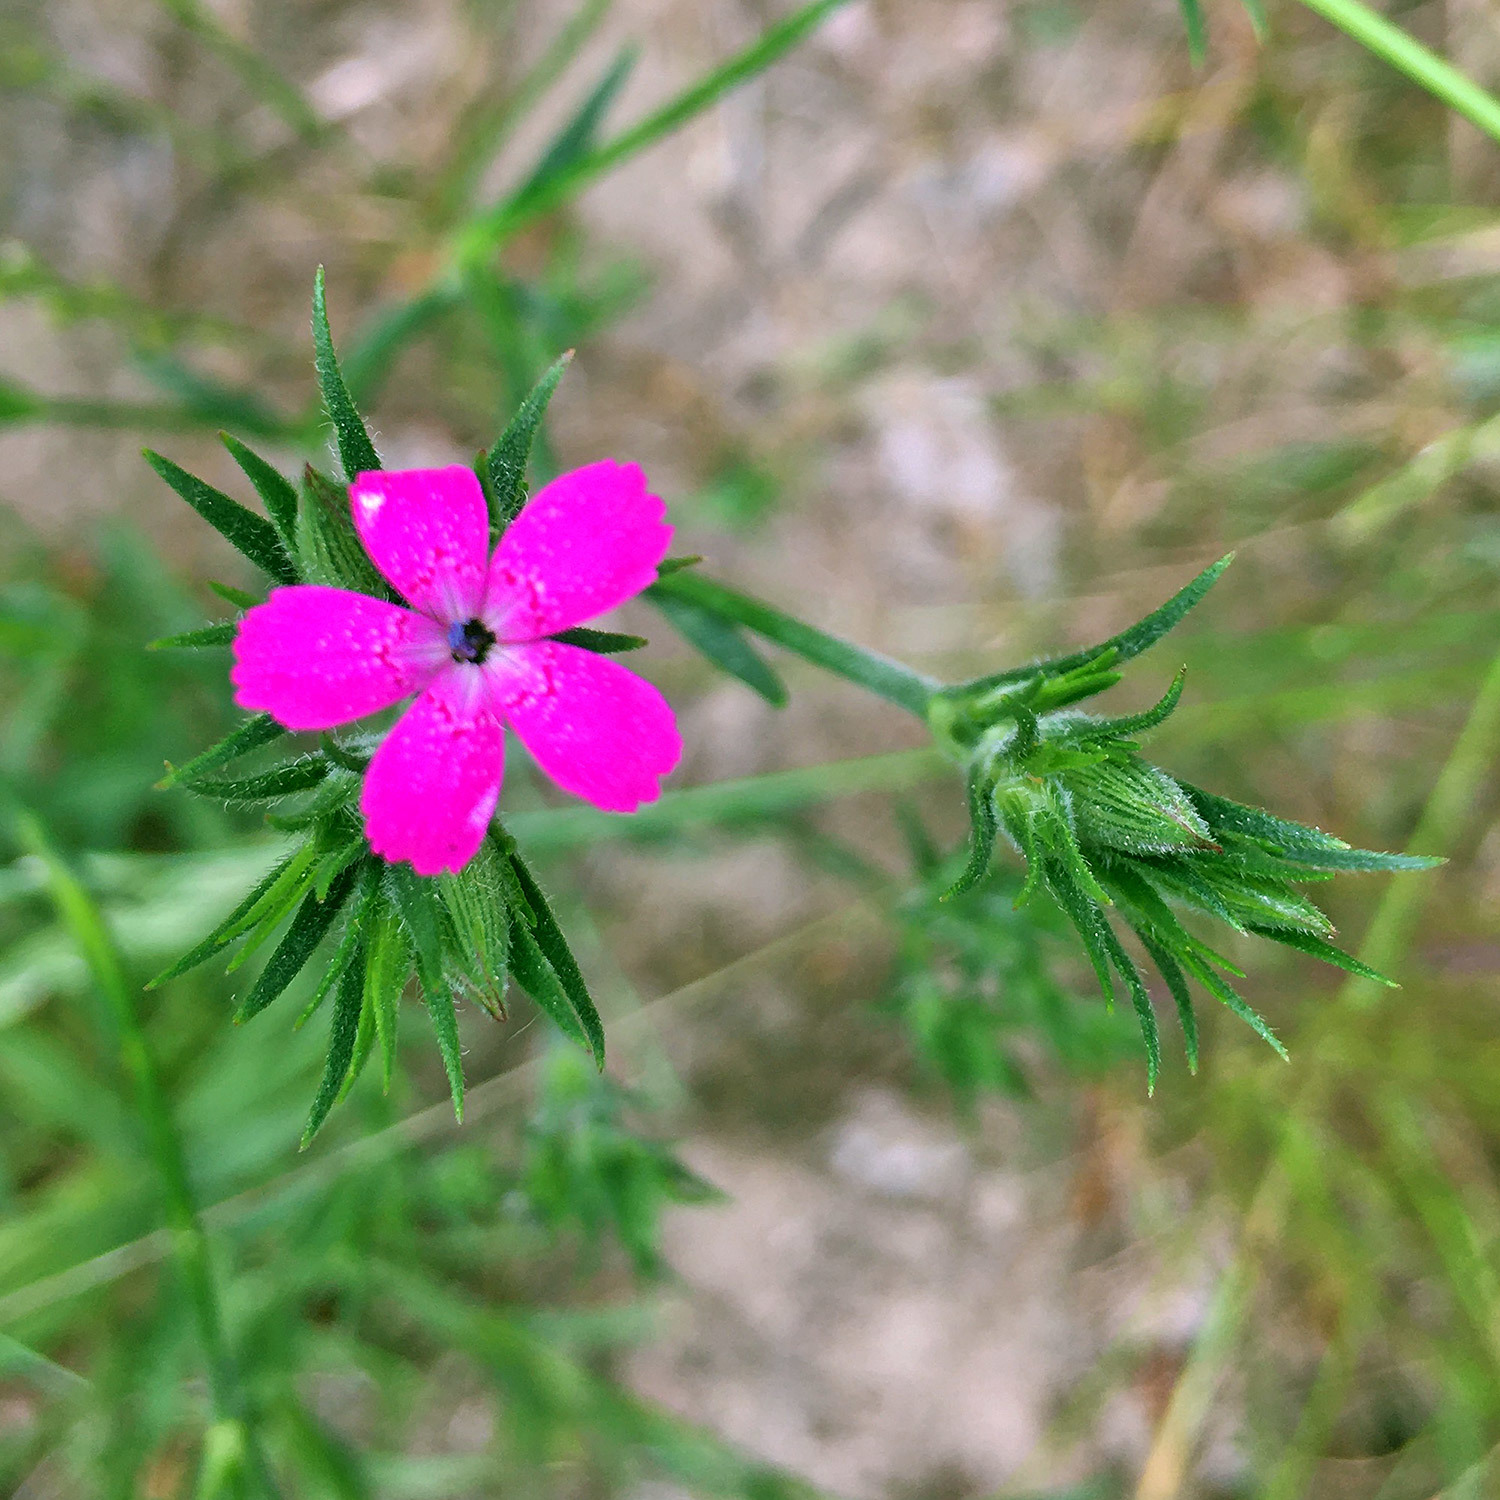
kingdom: Plantae
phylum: Tracheophyta
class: Magnoliopsida
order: Caryophyllales
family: Caryophyllaceae
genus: Dianthus
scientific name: Dianthus armeria
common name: Deptford pink
